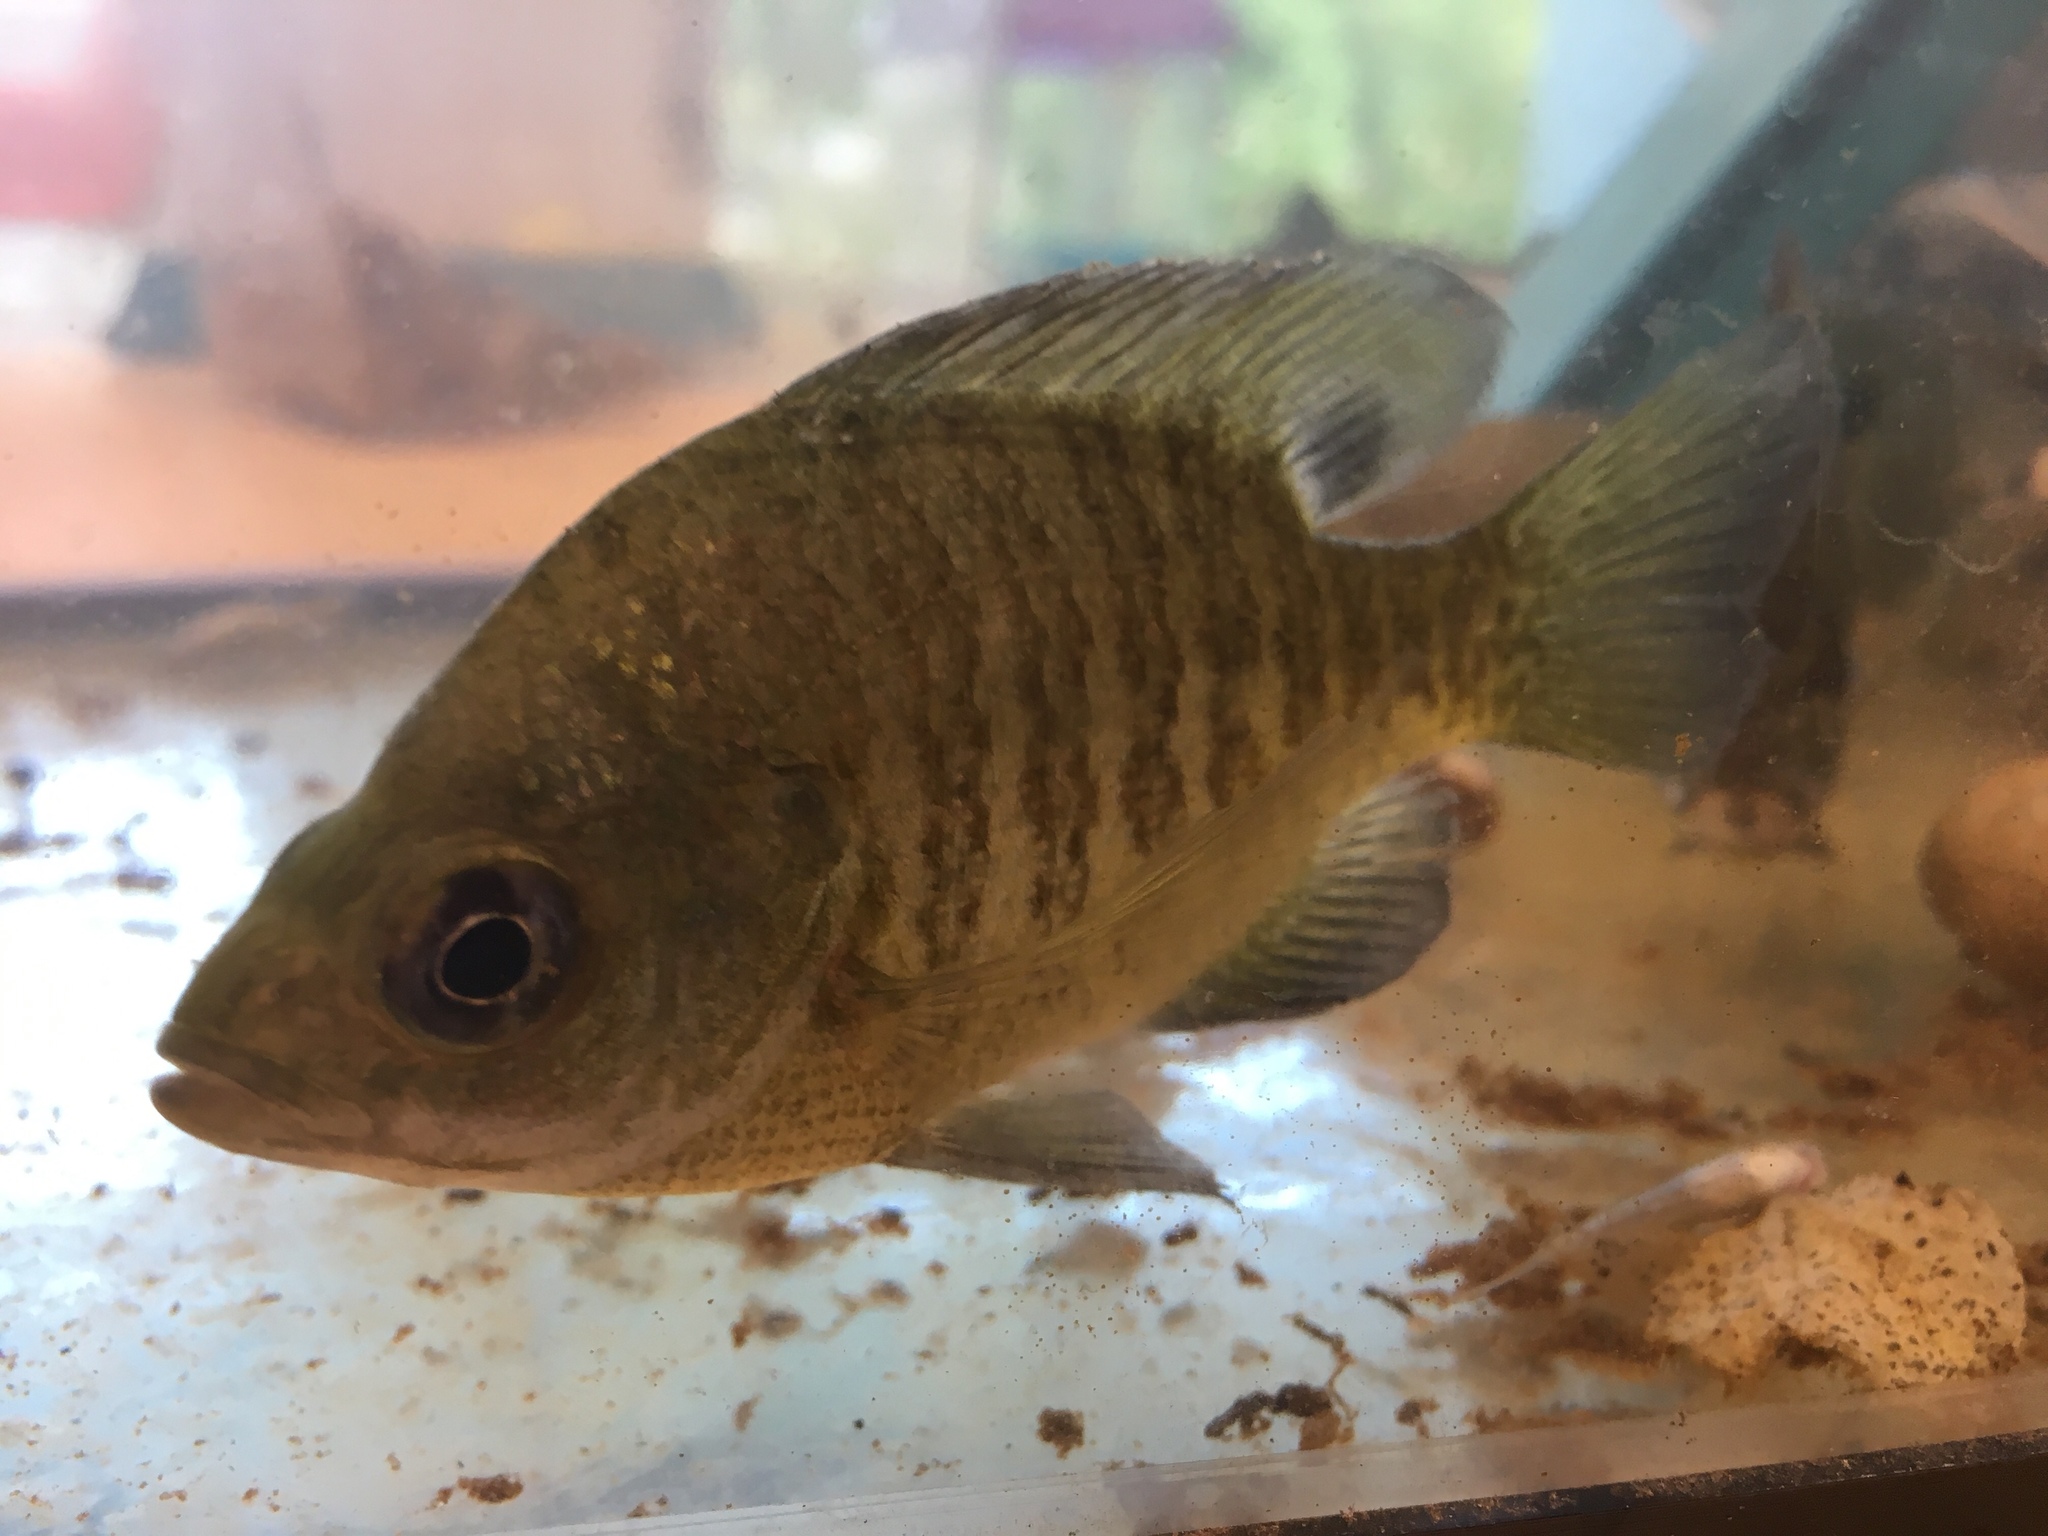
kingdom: Animalia
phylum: Chordata
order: Perciformes
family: Centrarchidae
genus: Lepomis
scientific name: Lepomis macrochirus
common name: Bluegill
